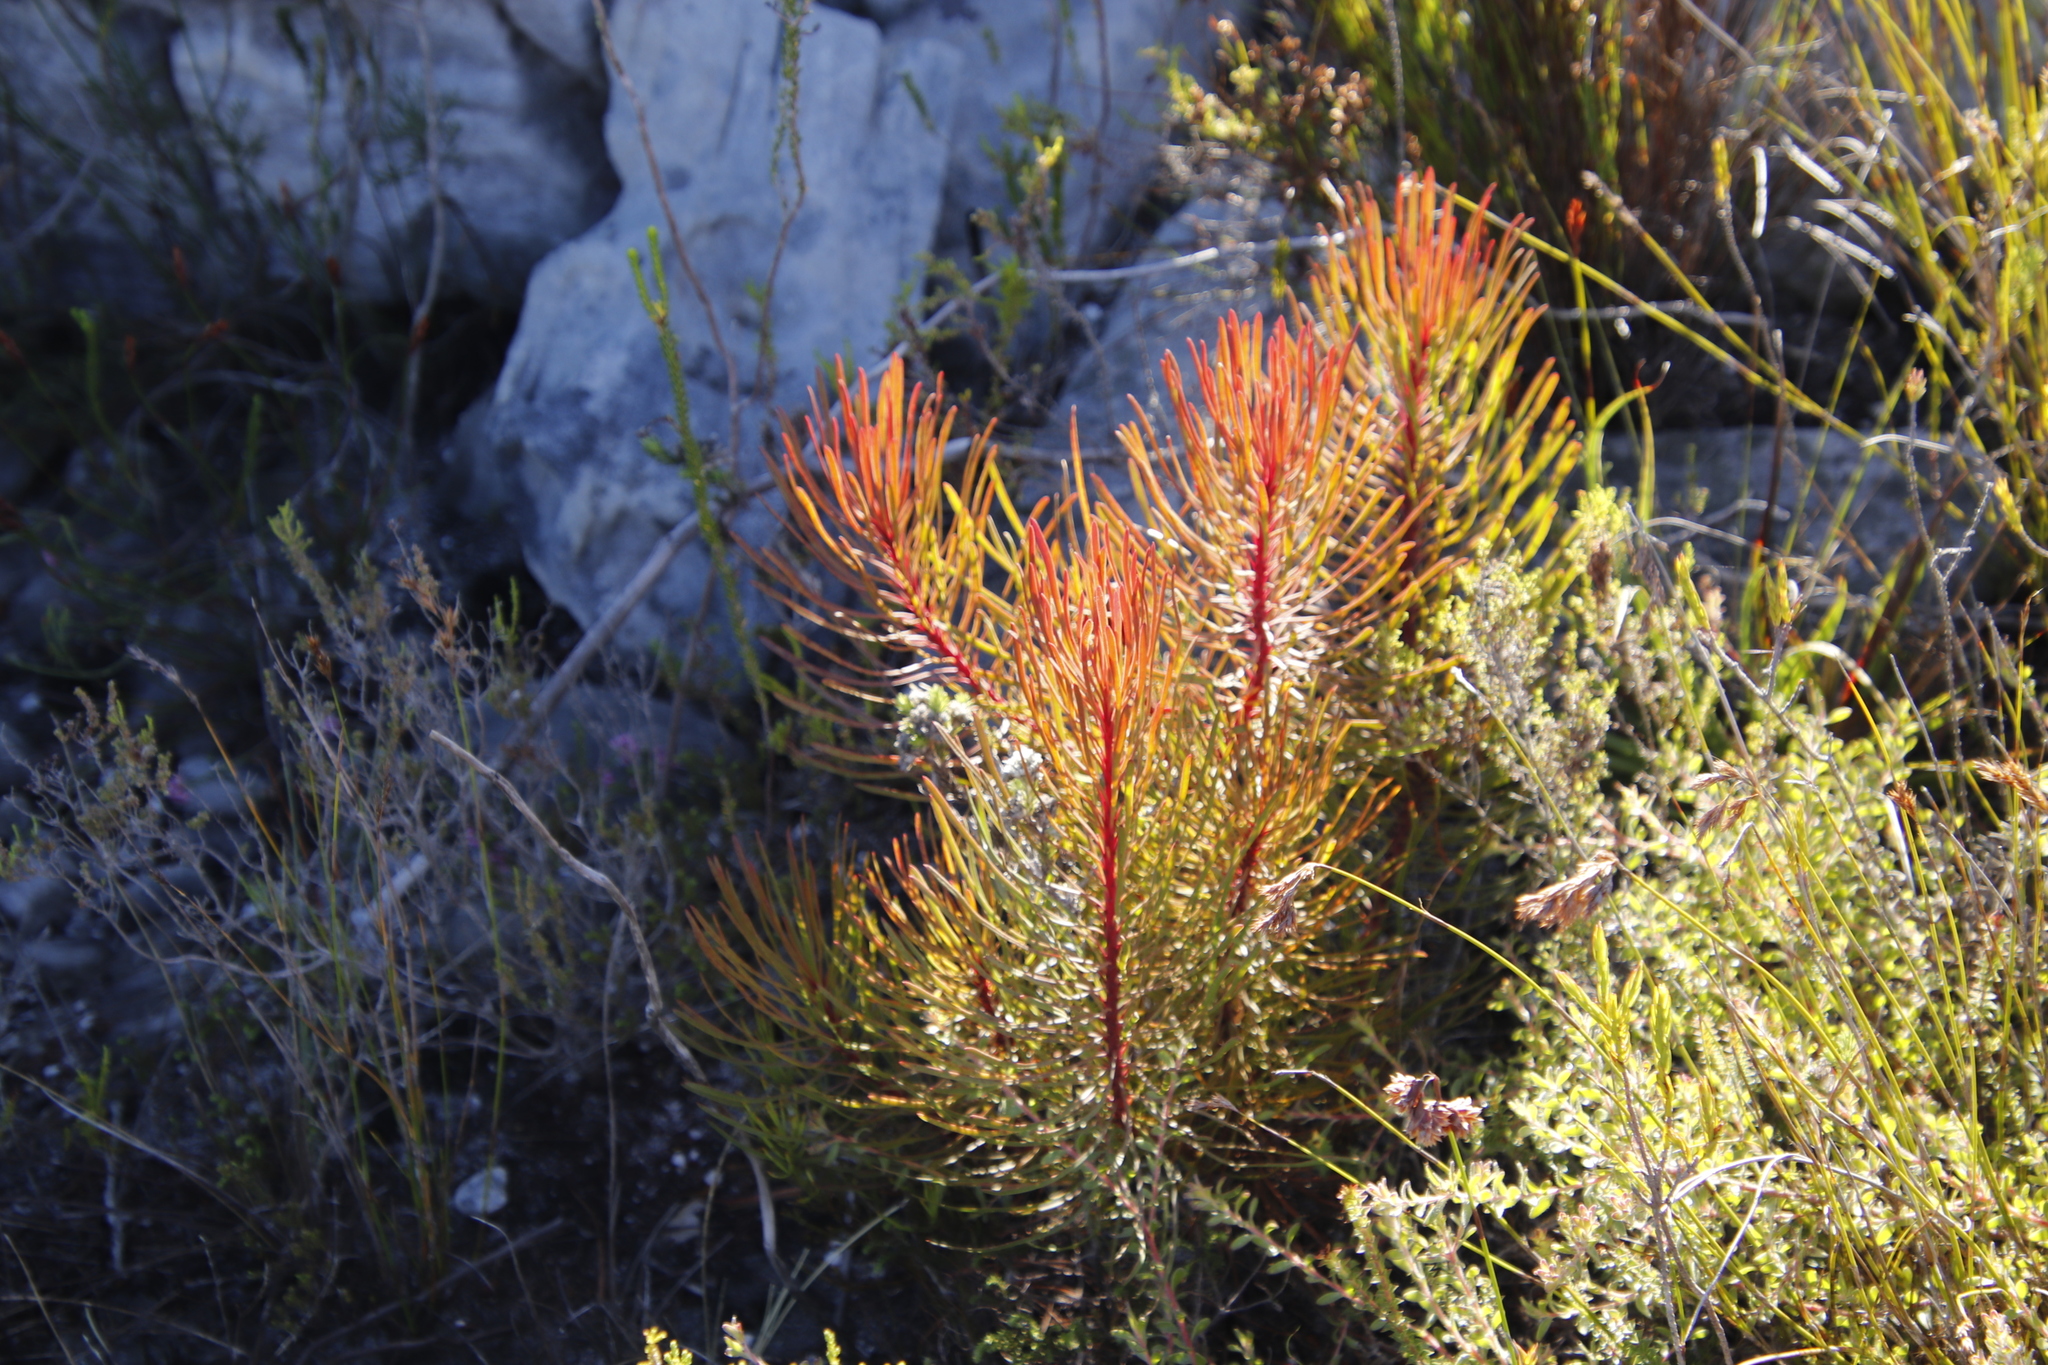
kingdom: Plantae
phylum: Tracheophyta
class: Magnoliopsida
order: Proteales
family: Proteaceae
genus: Aulax
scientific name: Aulax cancellata
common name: Channel-leaf featherbush
